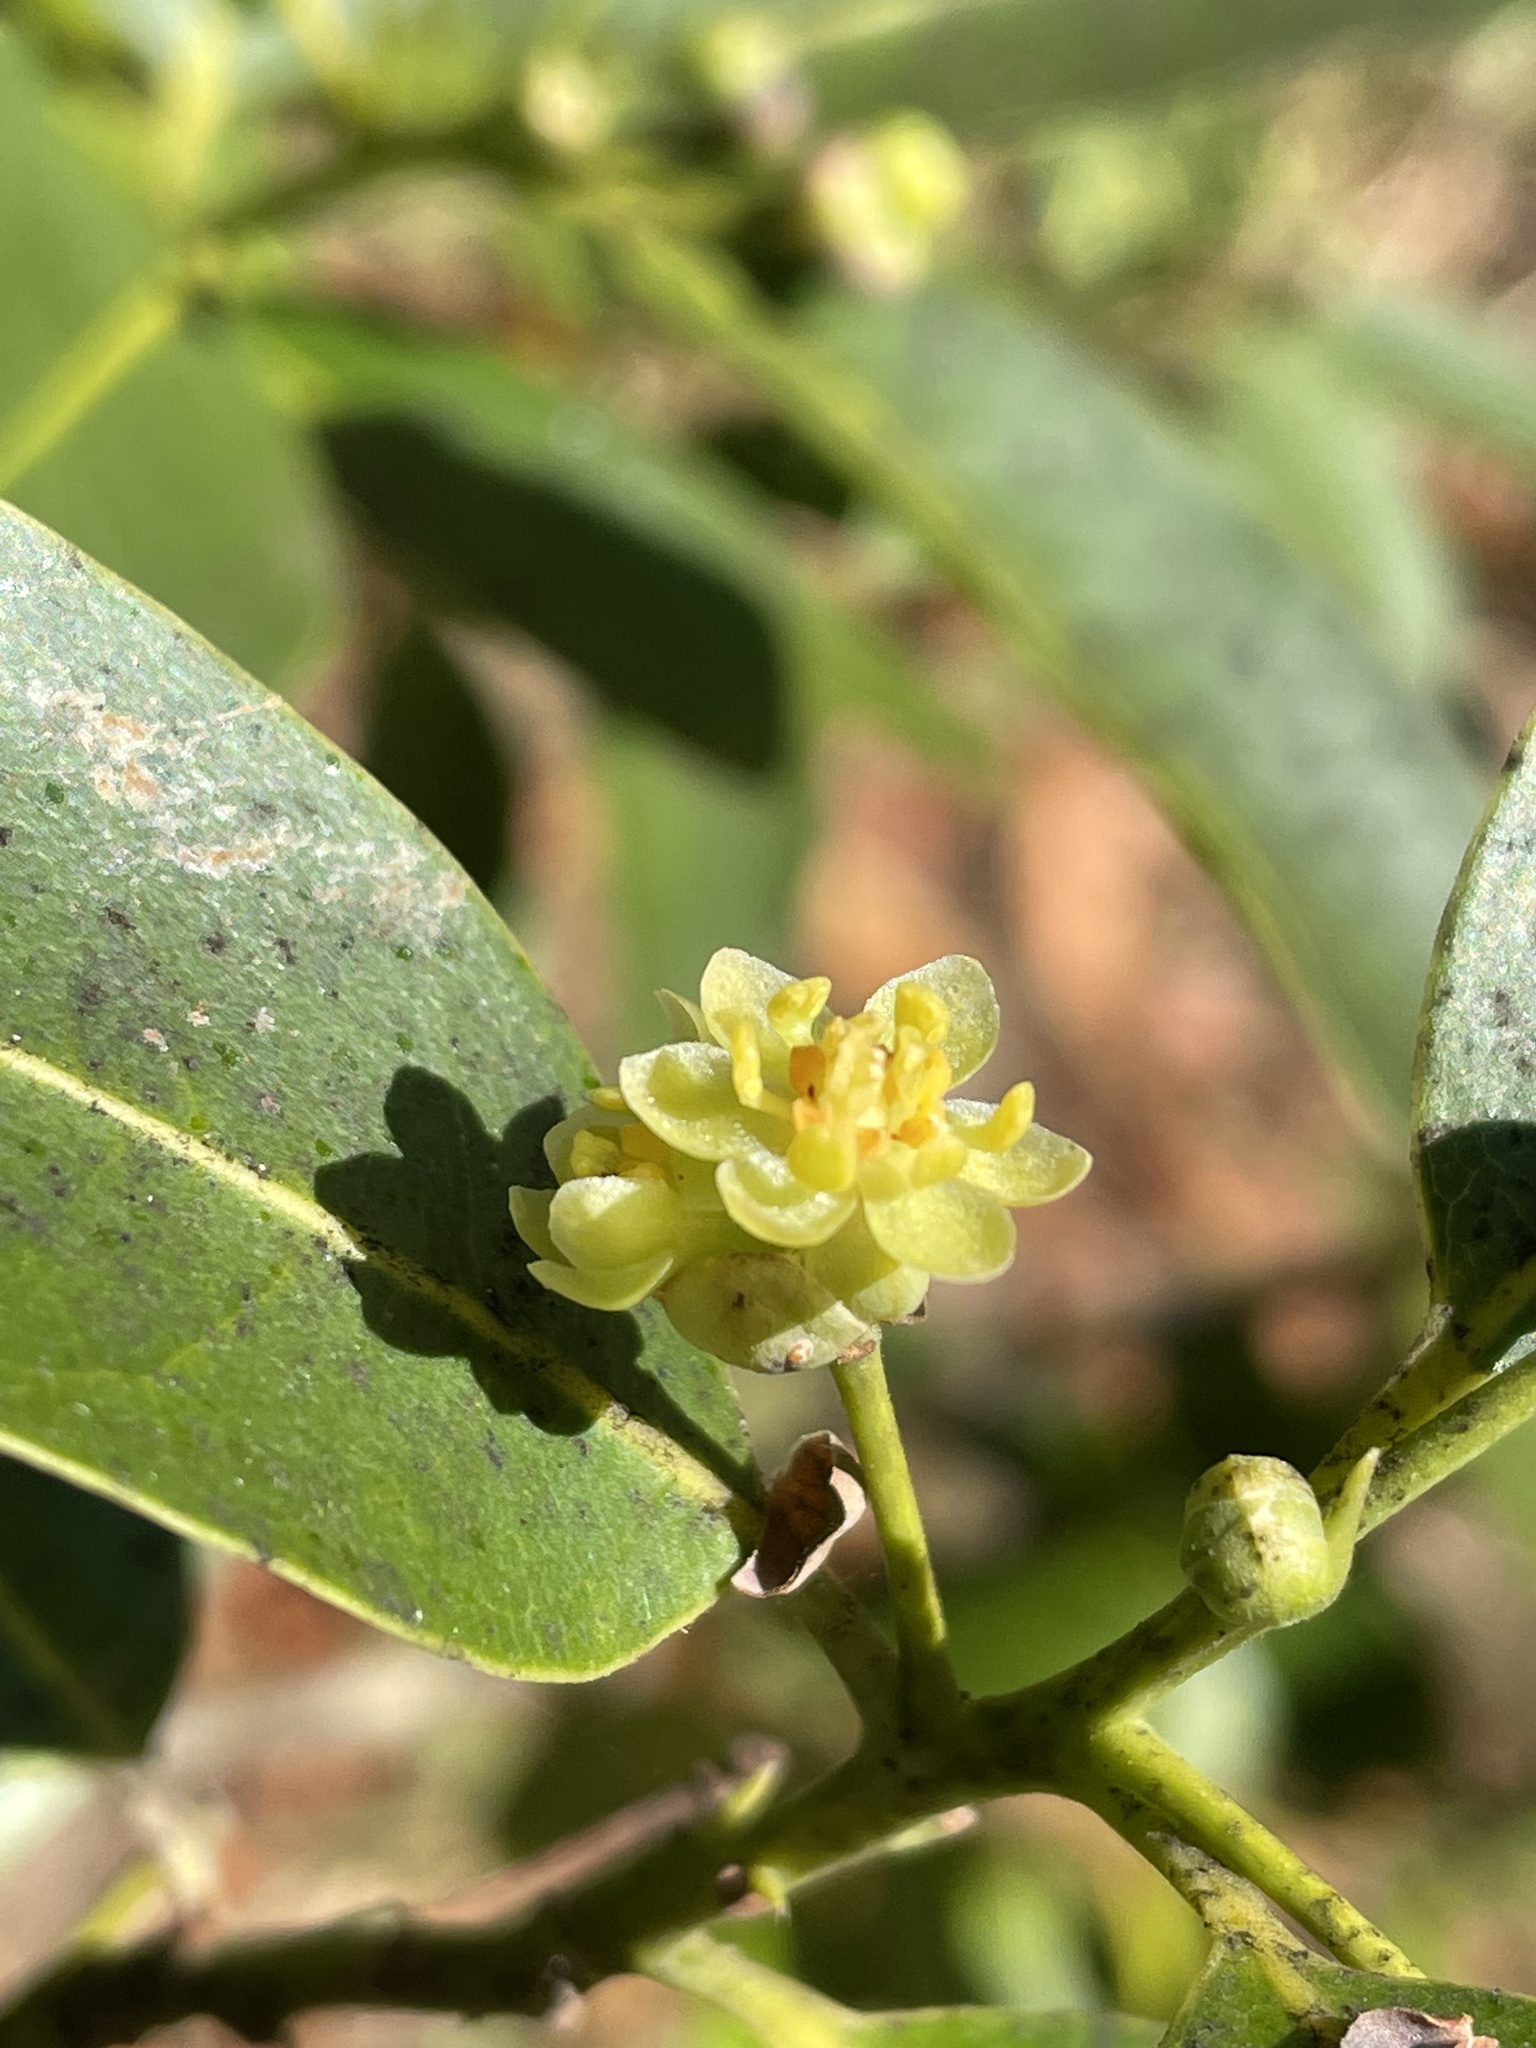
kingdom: Plantae
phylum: Tracheophyta
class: Magnoliopsida
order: Laurales
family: Lauraceae
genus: Umbellularia
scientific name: Umbellularia californica
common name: California bay
